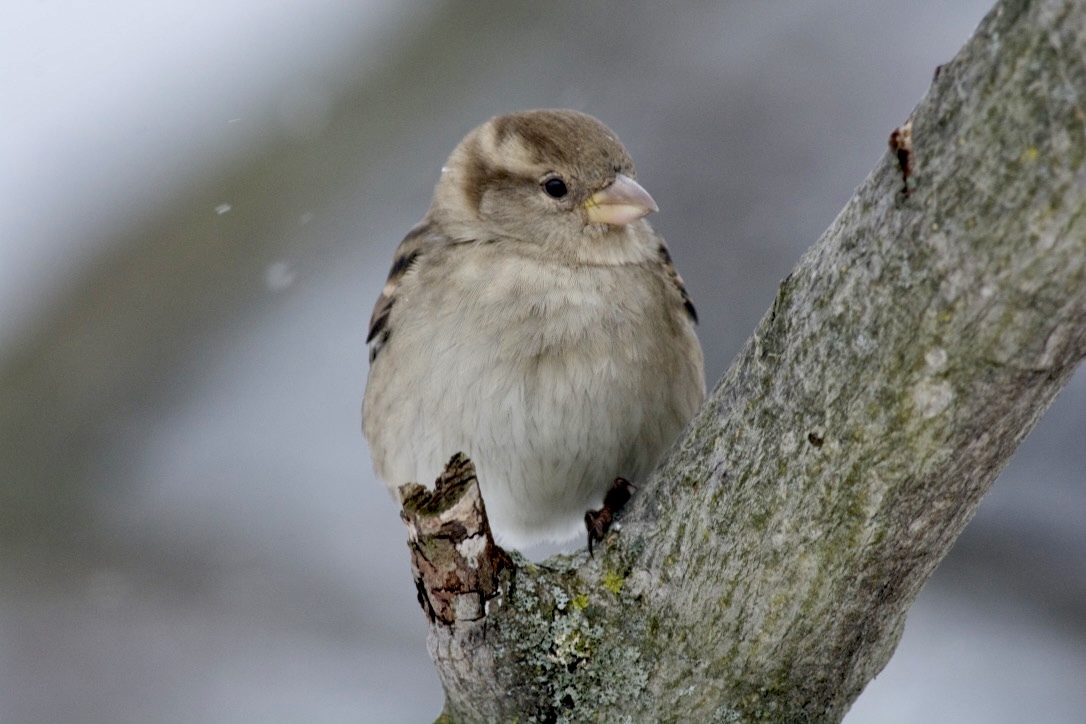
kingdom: Animalia
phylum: Chordata
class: Aves
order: Passeriformes
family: Passeridae
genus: Passer
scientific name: Passer domesticus
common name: House sparrow
